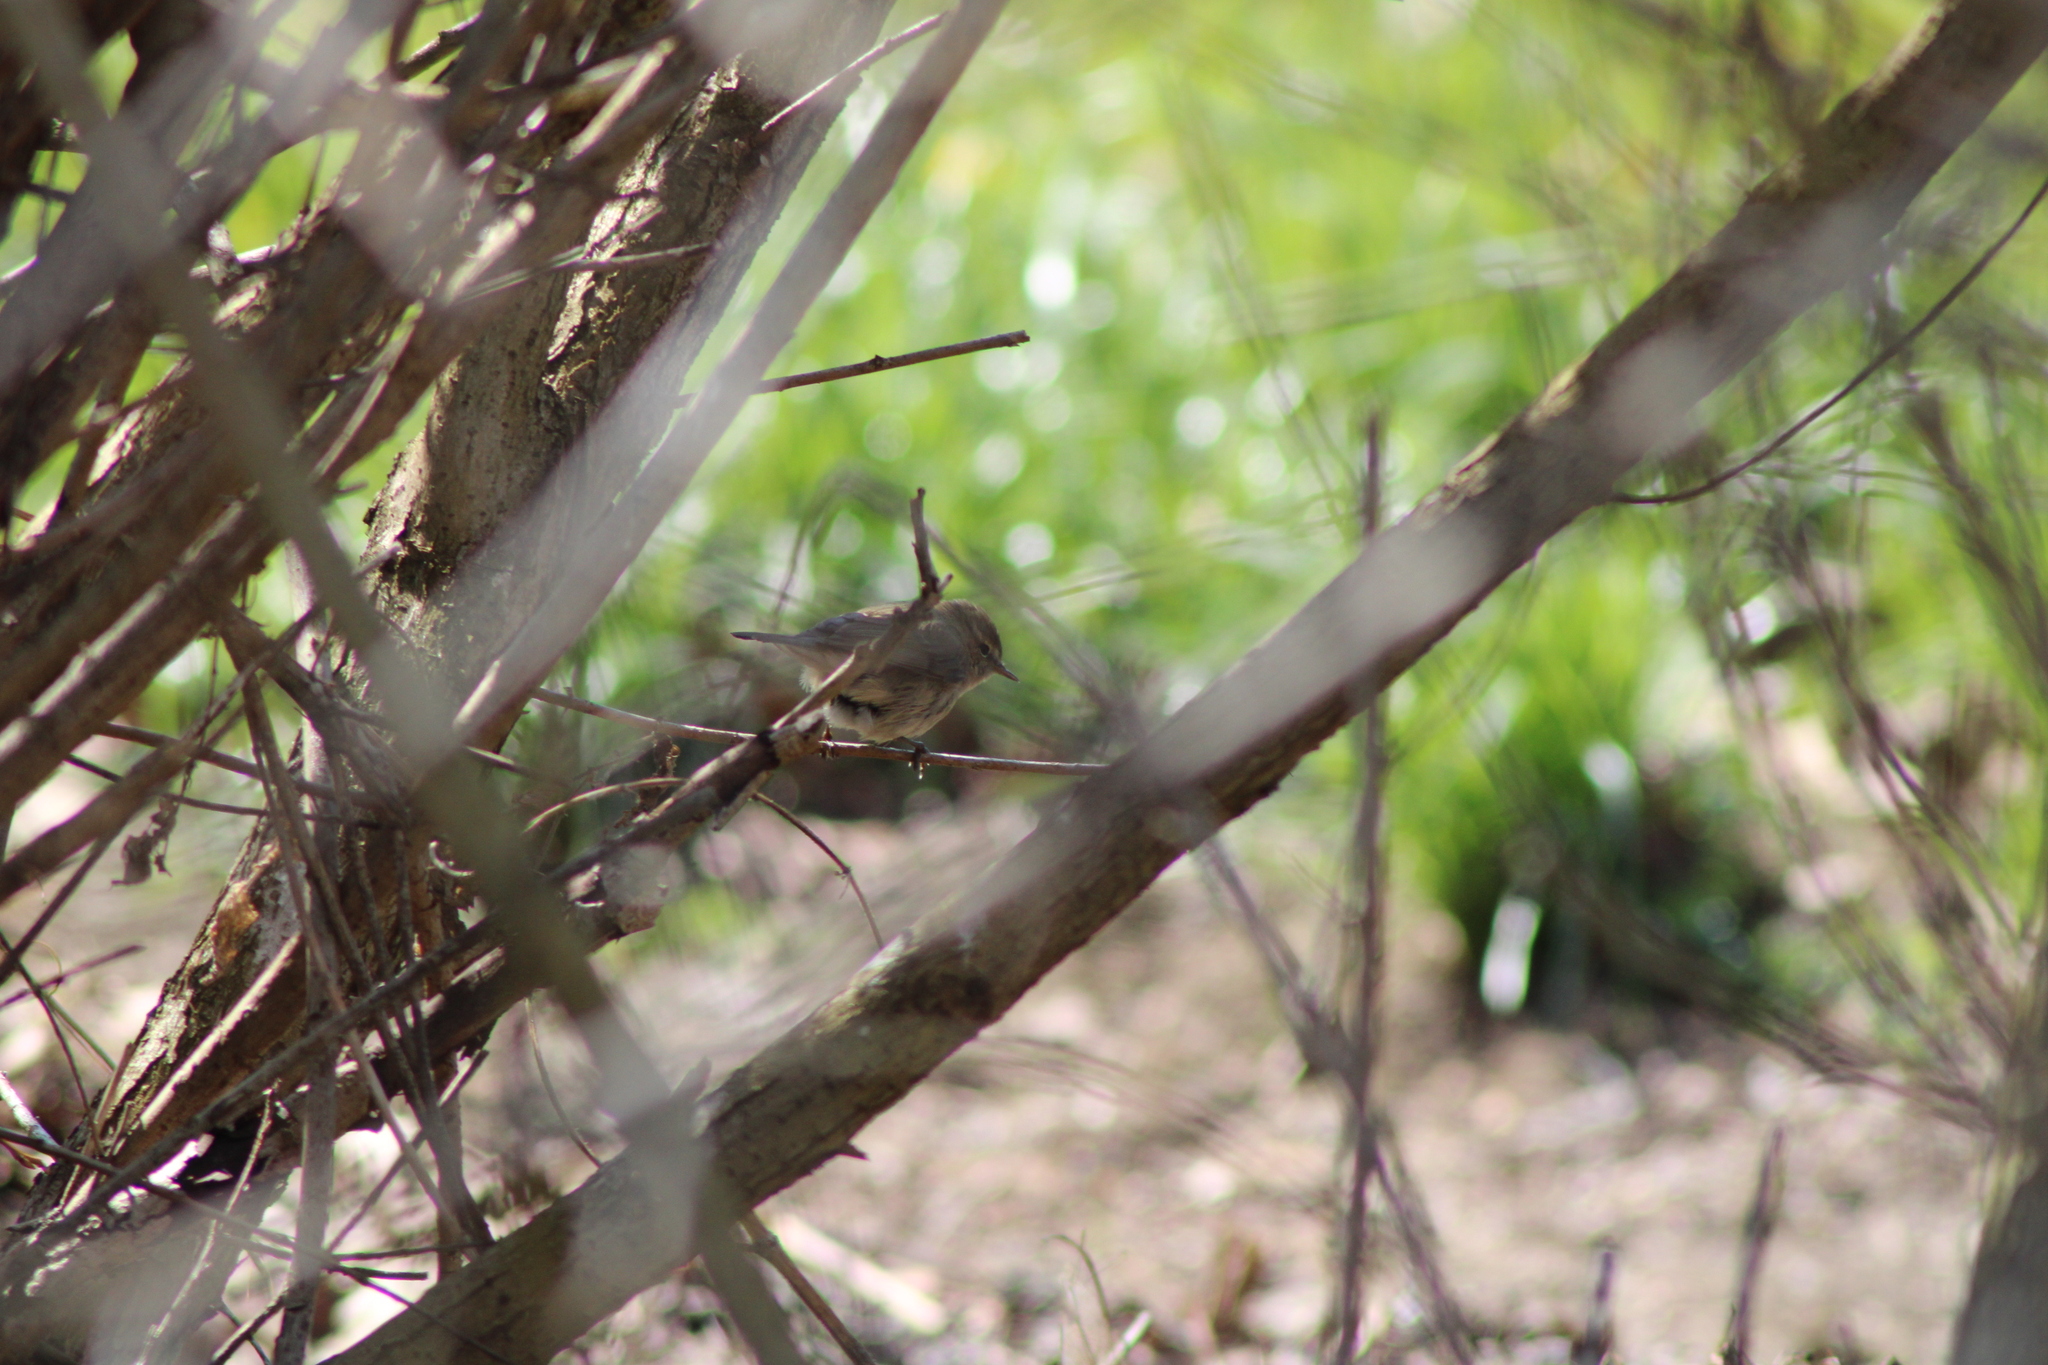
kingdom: Animalia
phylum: Chordata
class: Aves
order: Passeriformes
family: Phylloscopidae
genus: Phylloscopus
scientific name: Phylloscopus collybita
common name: Common chiffchaff
